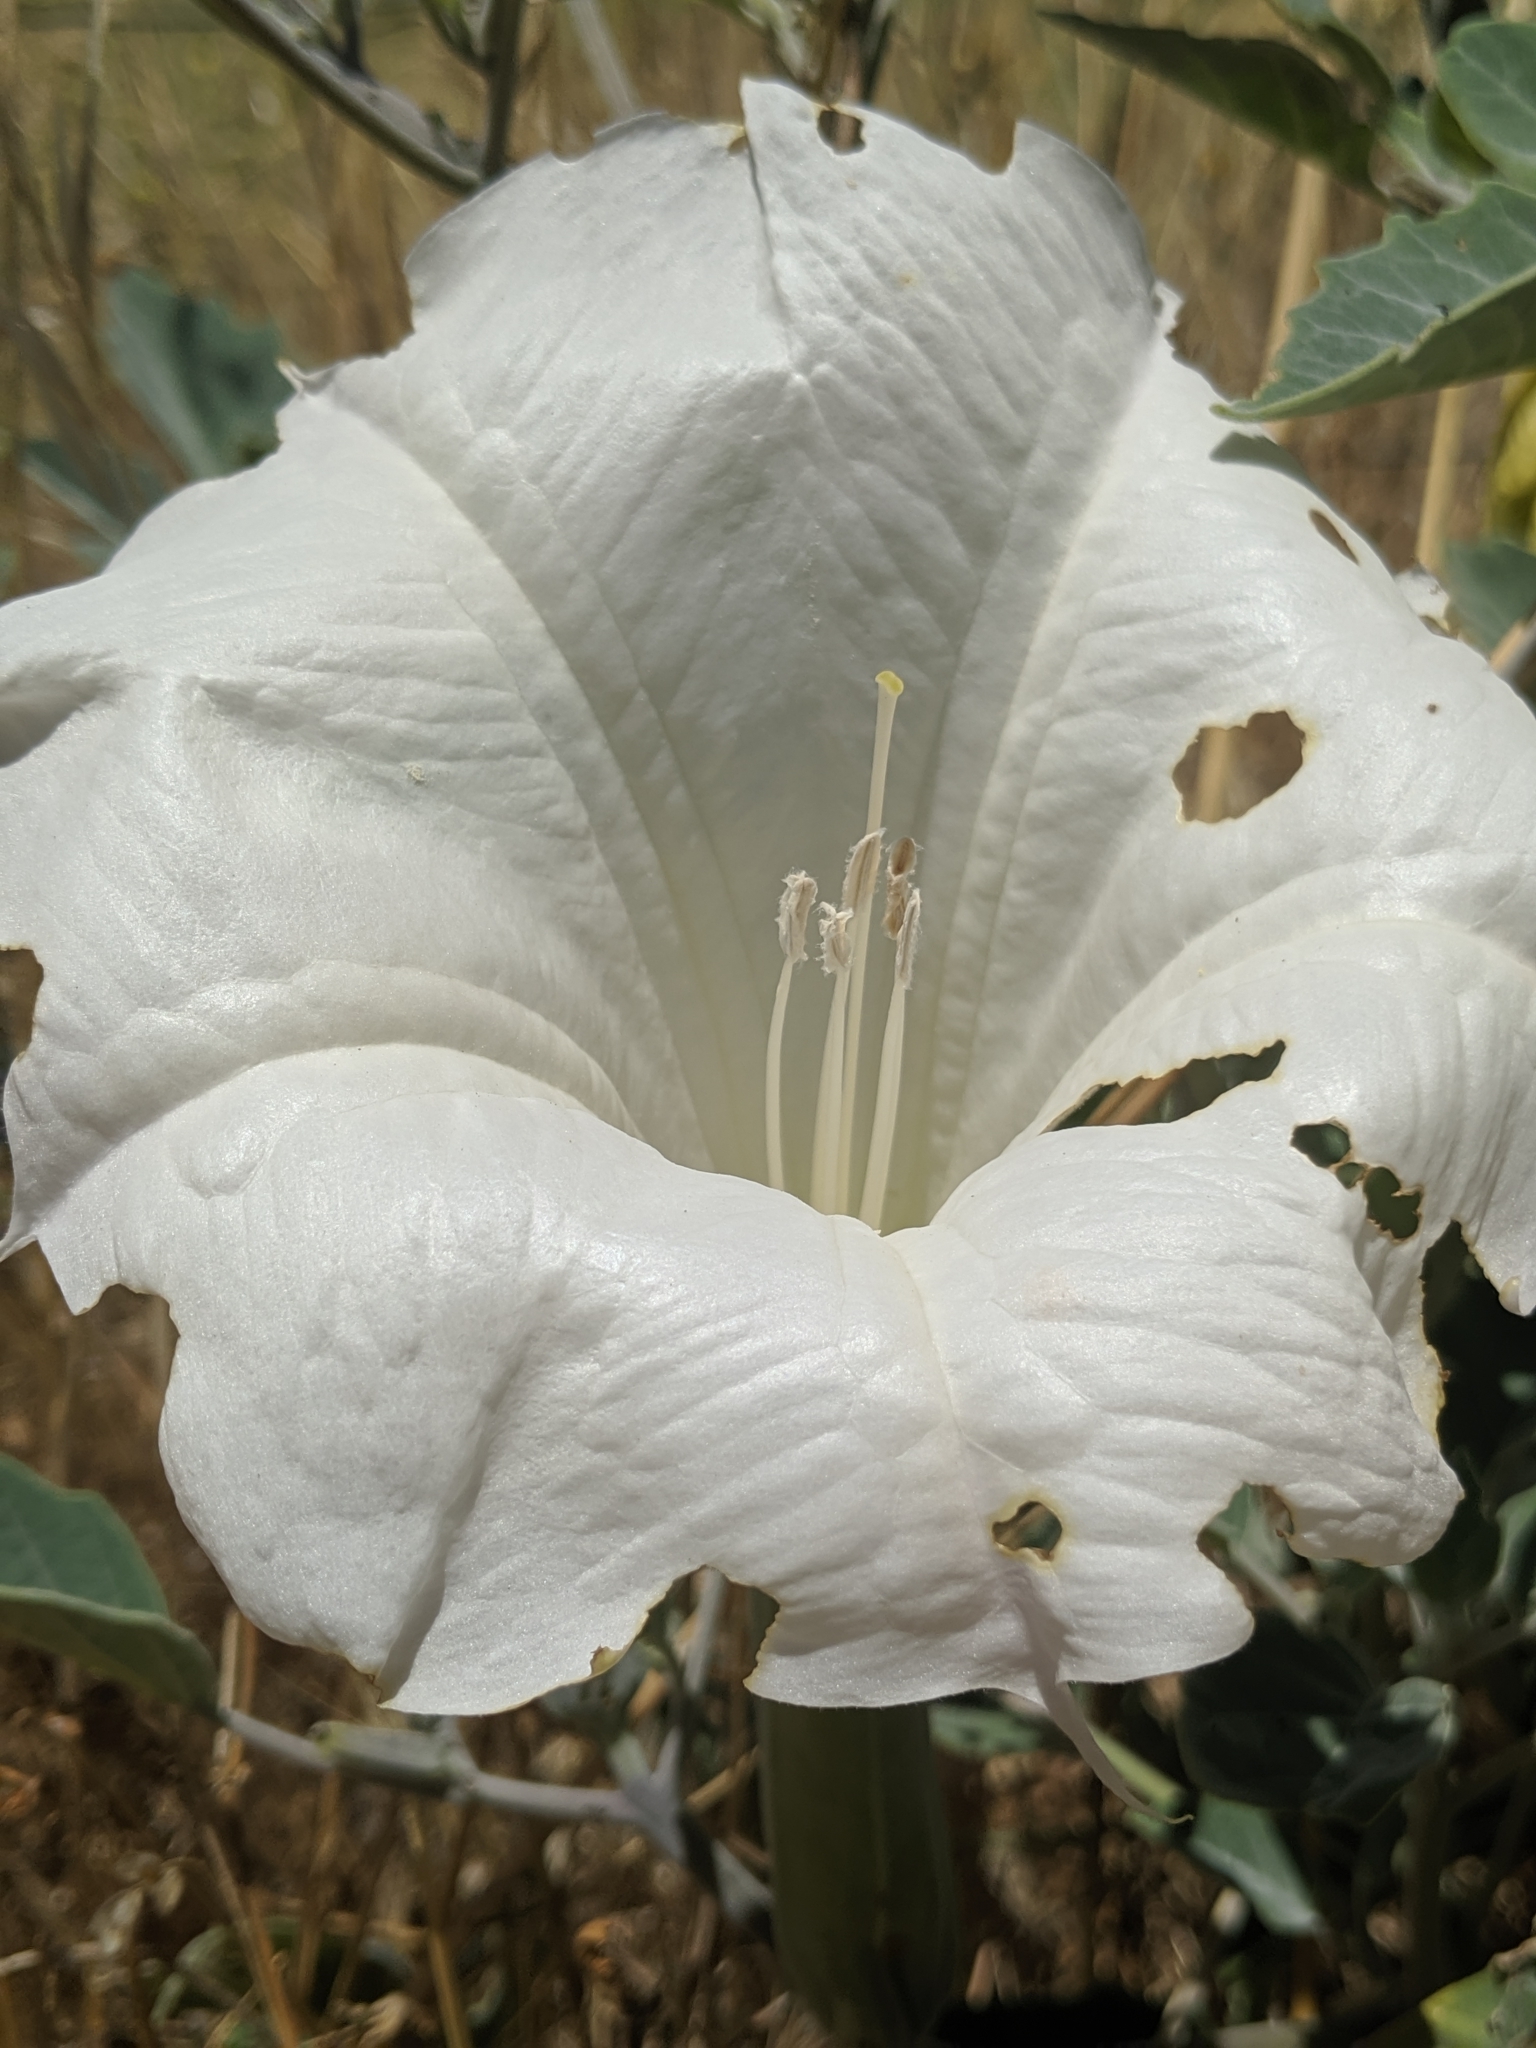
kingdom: Plantae
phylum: Tracheophyta
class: Magnoliopsida
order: Solanales
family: Solanaceae
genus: Datura
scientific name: Datura wrightii
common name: Sacred thorn-apple
